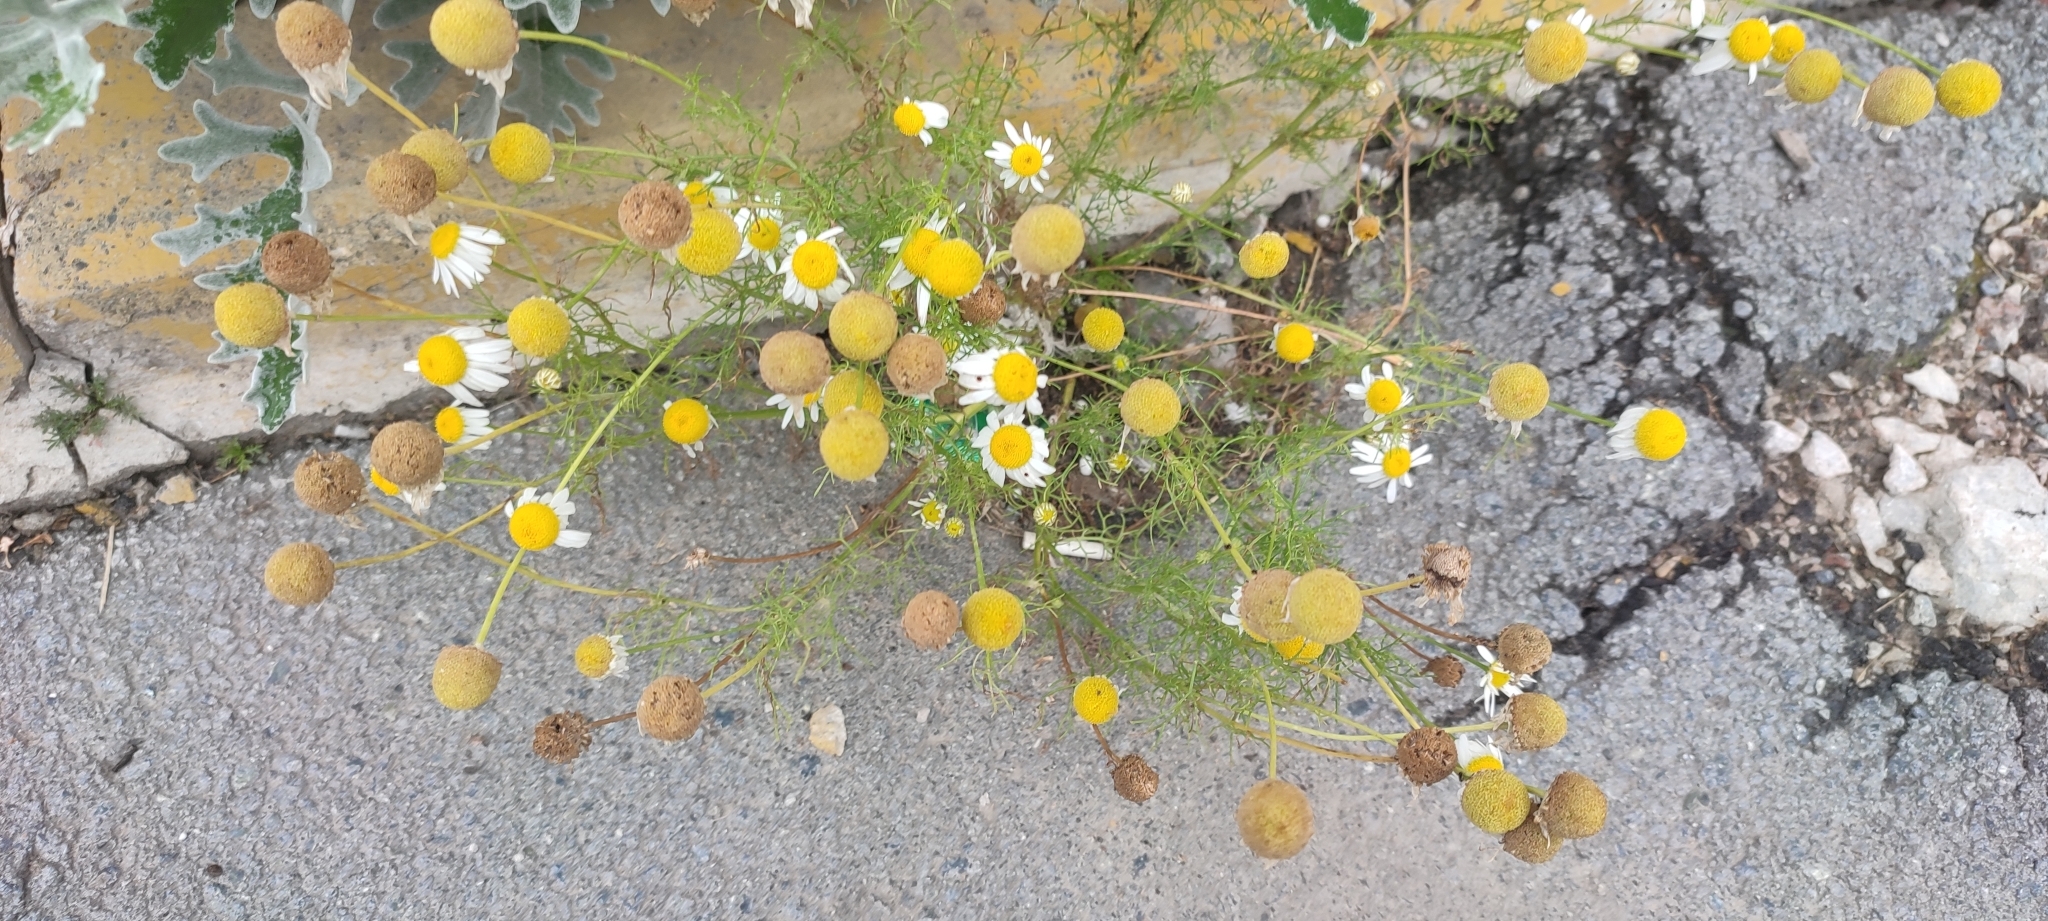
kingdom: Plantae
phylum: Tracheophyta
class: Magnoliopsida
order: Asterales
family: Asteraceae
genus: Tripleurospermum
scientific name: Tripleurospermum inodorum
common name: Scentless mayweed
